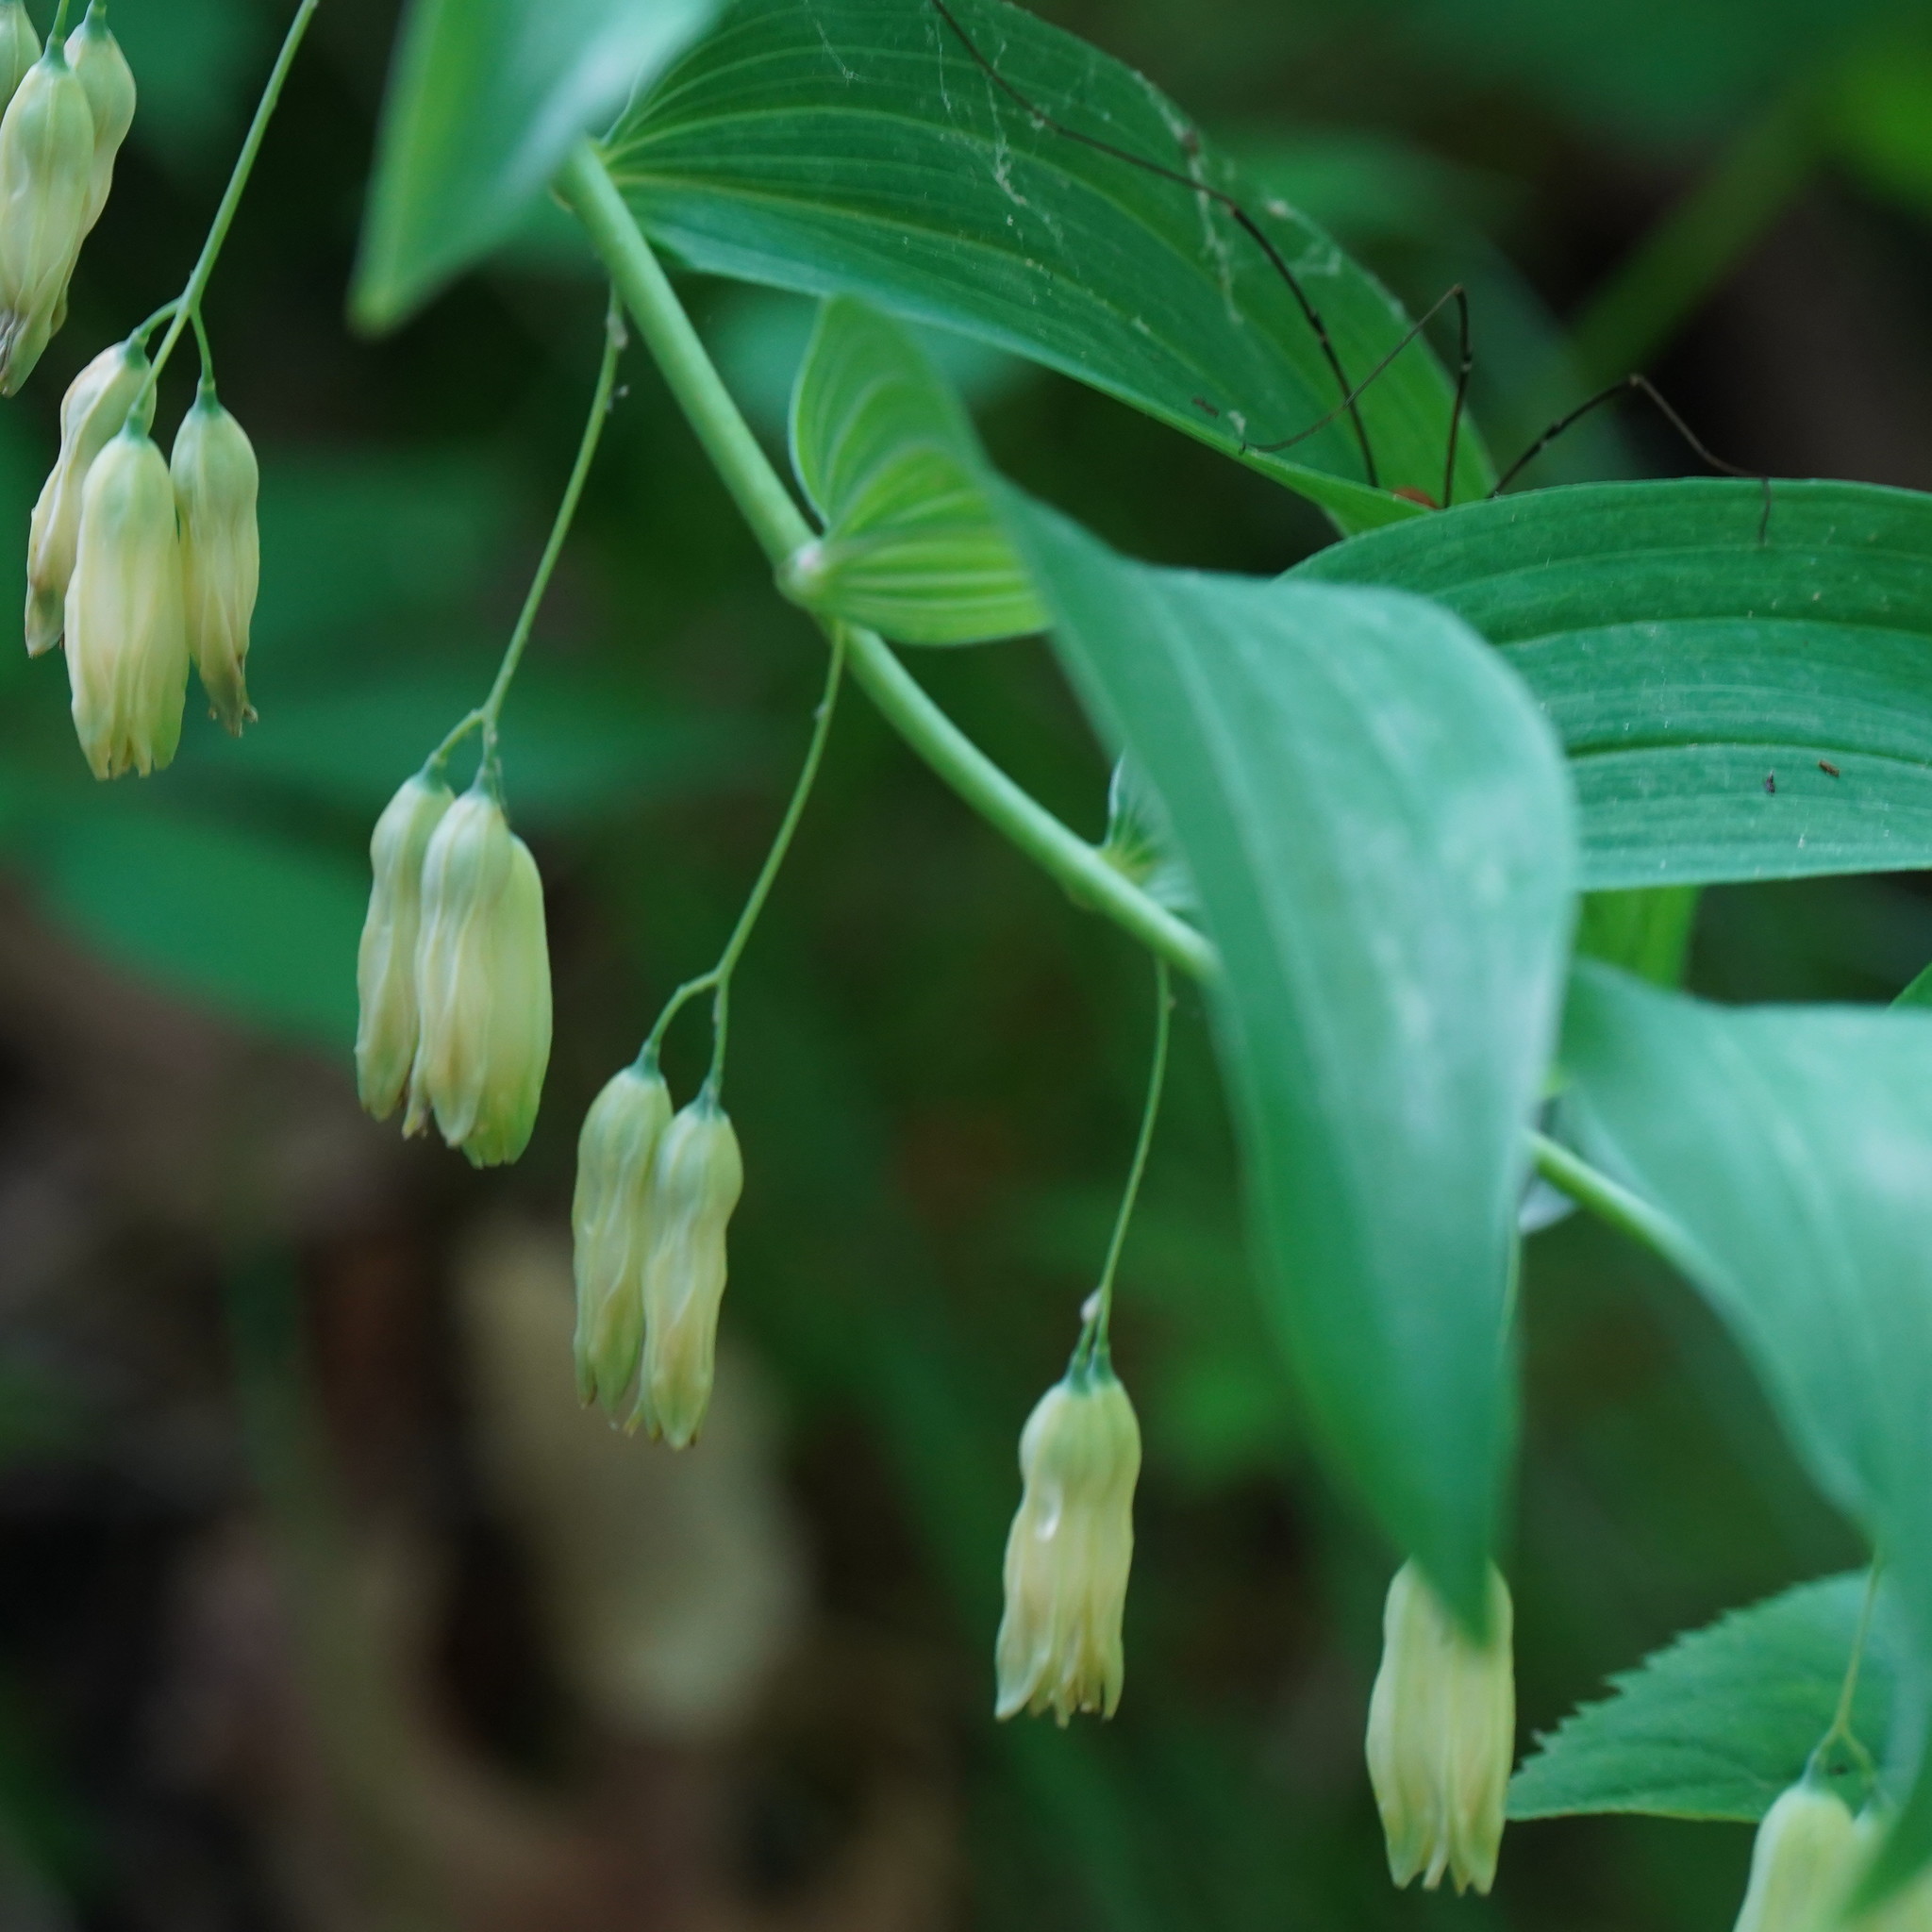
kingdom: Plantae
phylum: Tracheophyta
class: Liliopsida
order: Asparagales
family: Asparagaceae
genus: Polygonatum
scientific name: Polygonatum biflorum
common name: American solomon's-seal
